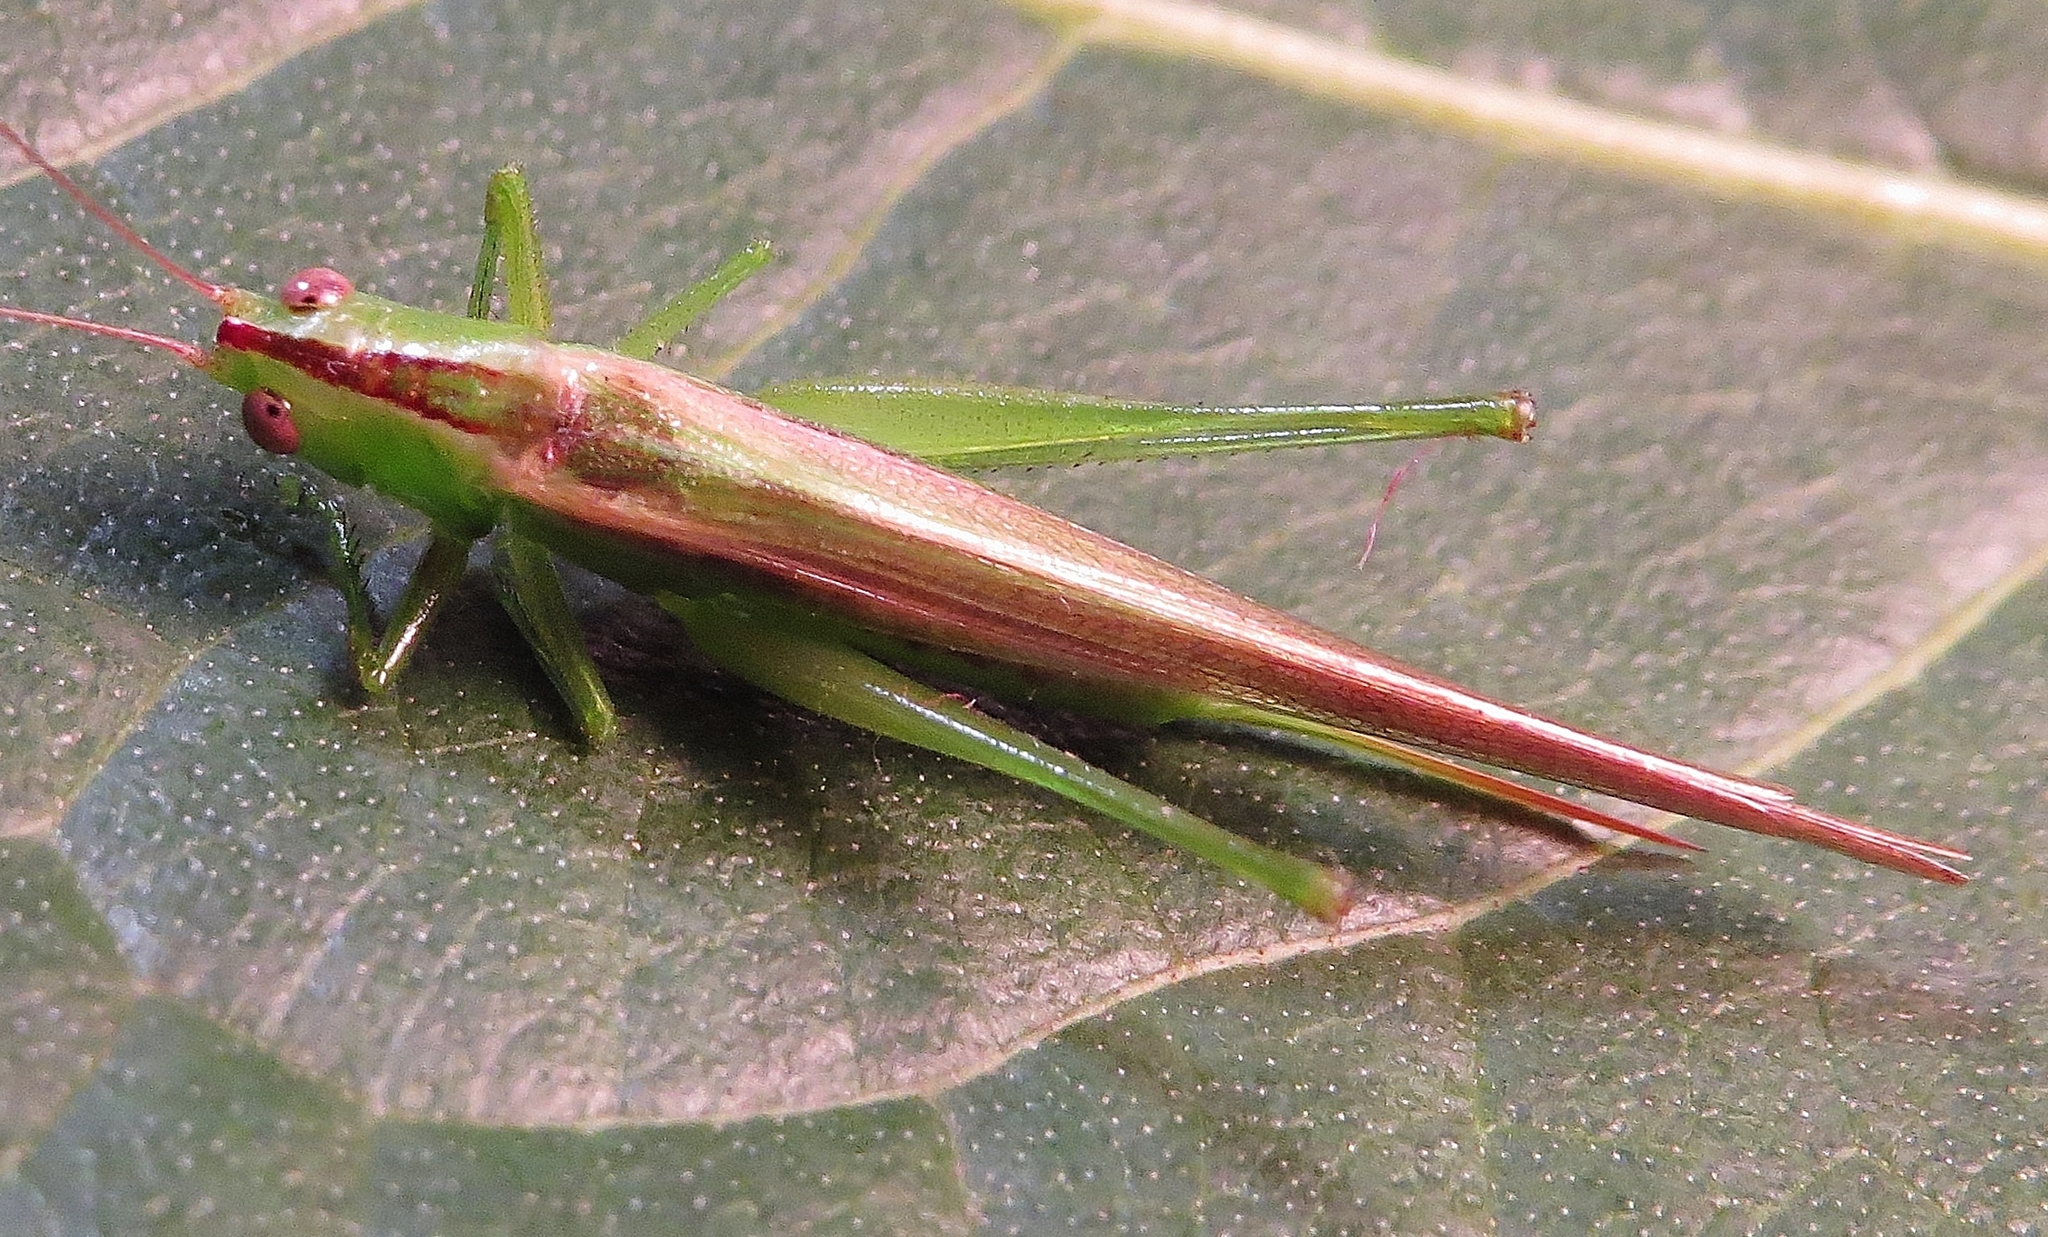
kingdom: Animalia
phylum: Arthropoda
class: Insecta
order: Orthoptera
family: Tettigoniidae
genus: Conocephalus
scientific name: Conocephalus fasciatus
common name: Slender meadow katydid
